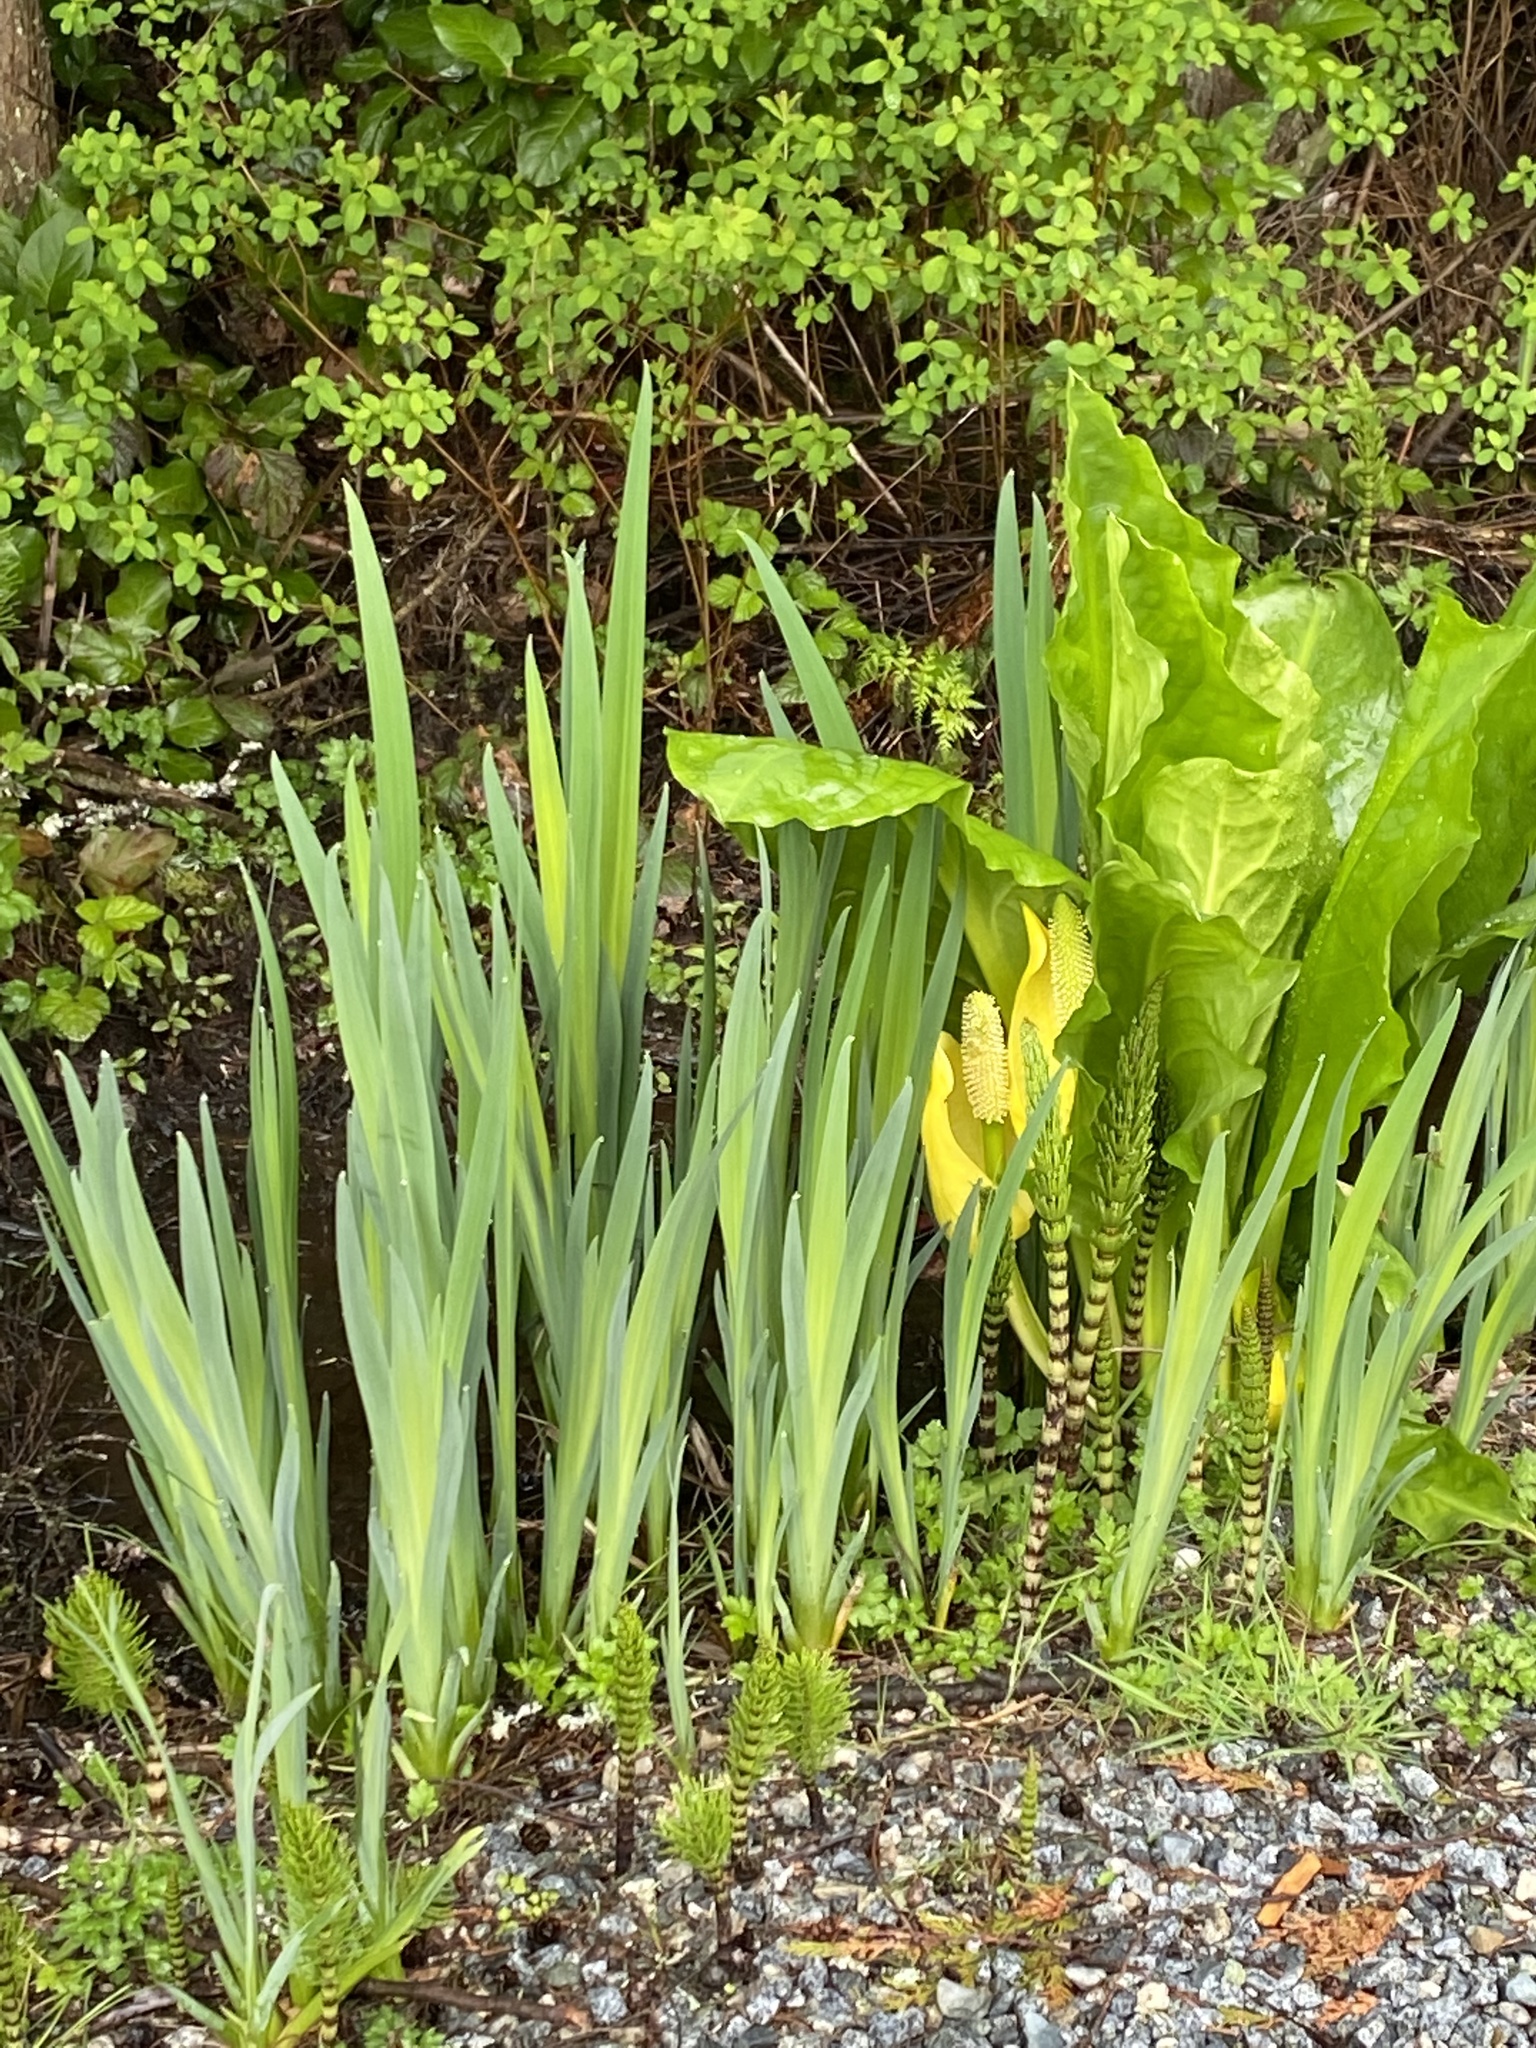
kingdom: Plantae
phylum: Tracheophyta
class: Liliopsida
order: Asparagales
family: Iridaceae
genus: Iris
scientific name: Iris pseudacorus
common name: Yellow flag
